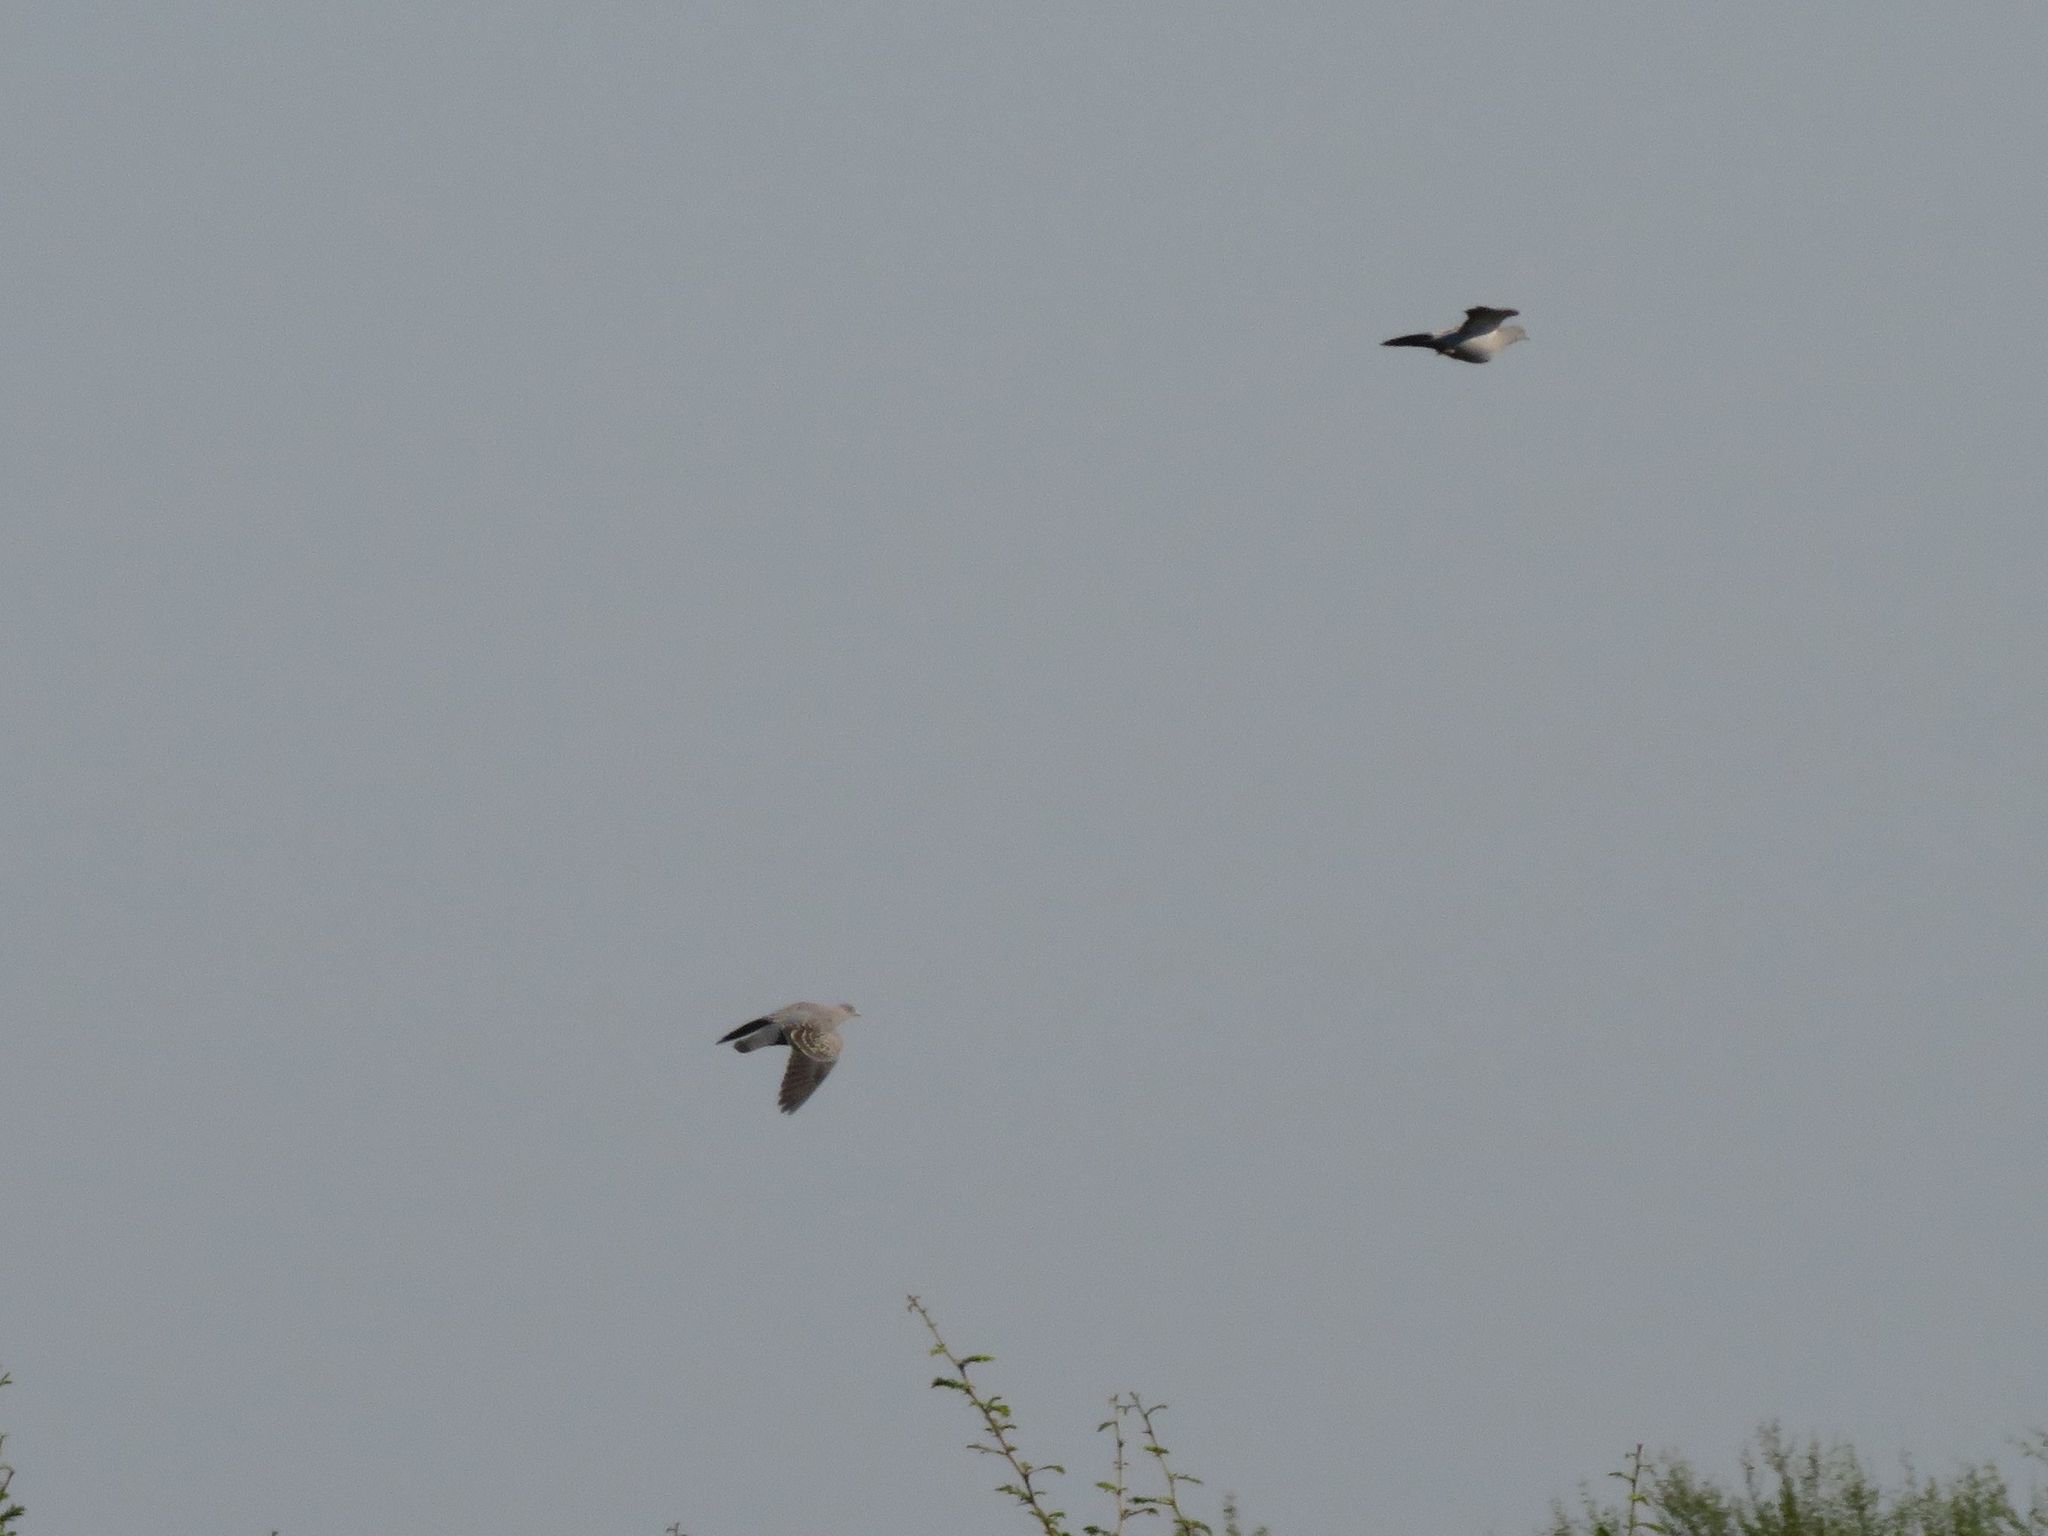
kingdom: Animalia
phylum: Chordata
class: Aves
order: Columbiformes
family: Columbidae
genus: Patagioenas
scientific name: Patagioenas maculosa
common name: Spot-winged pigeon
